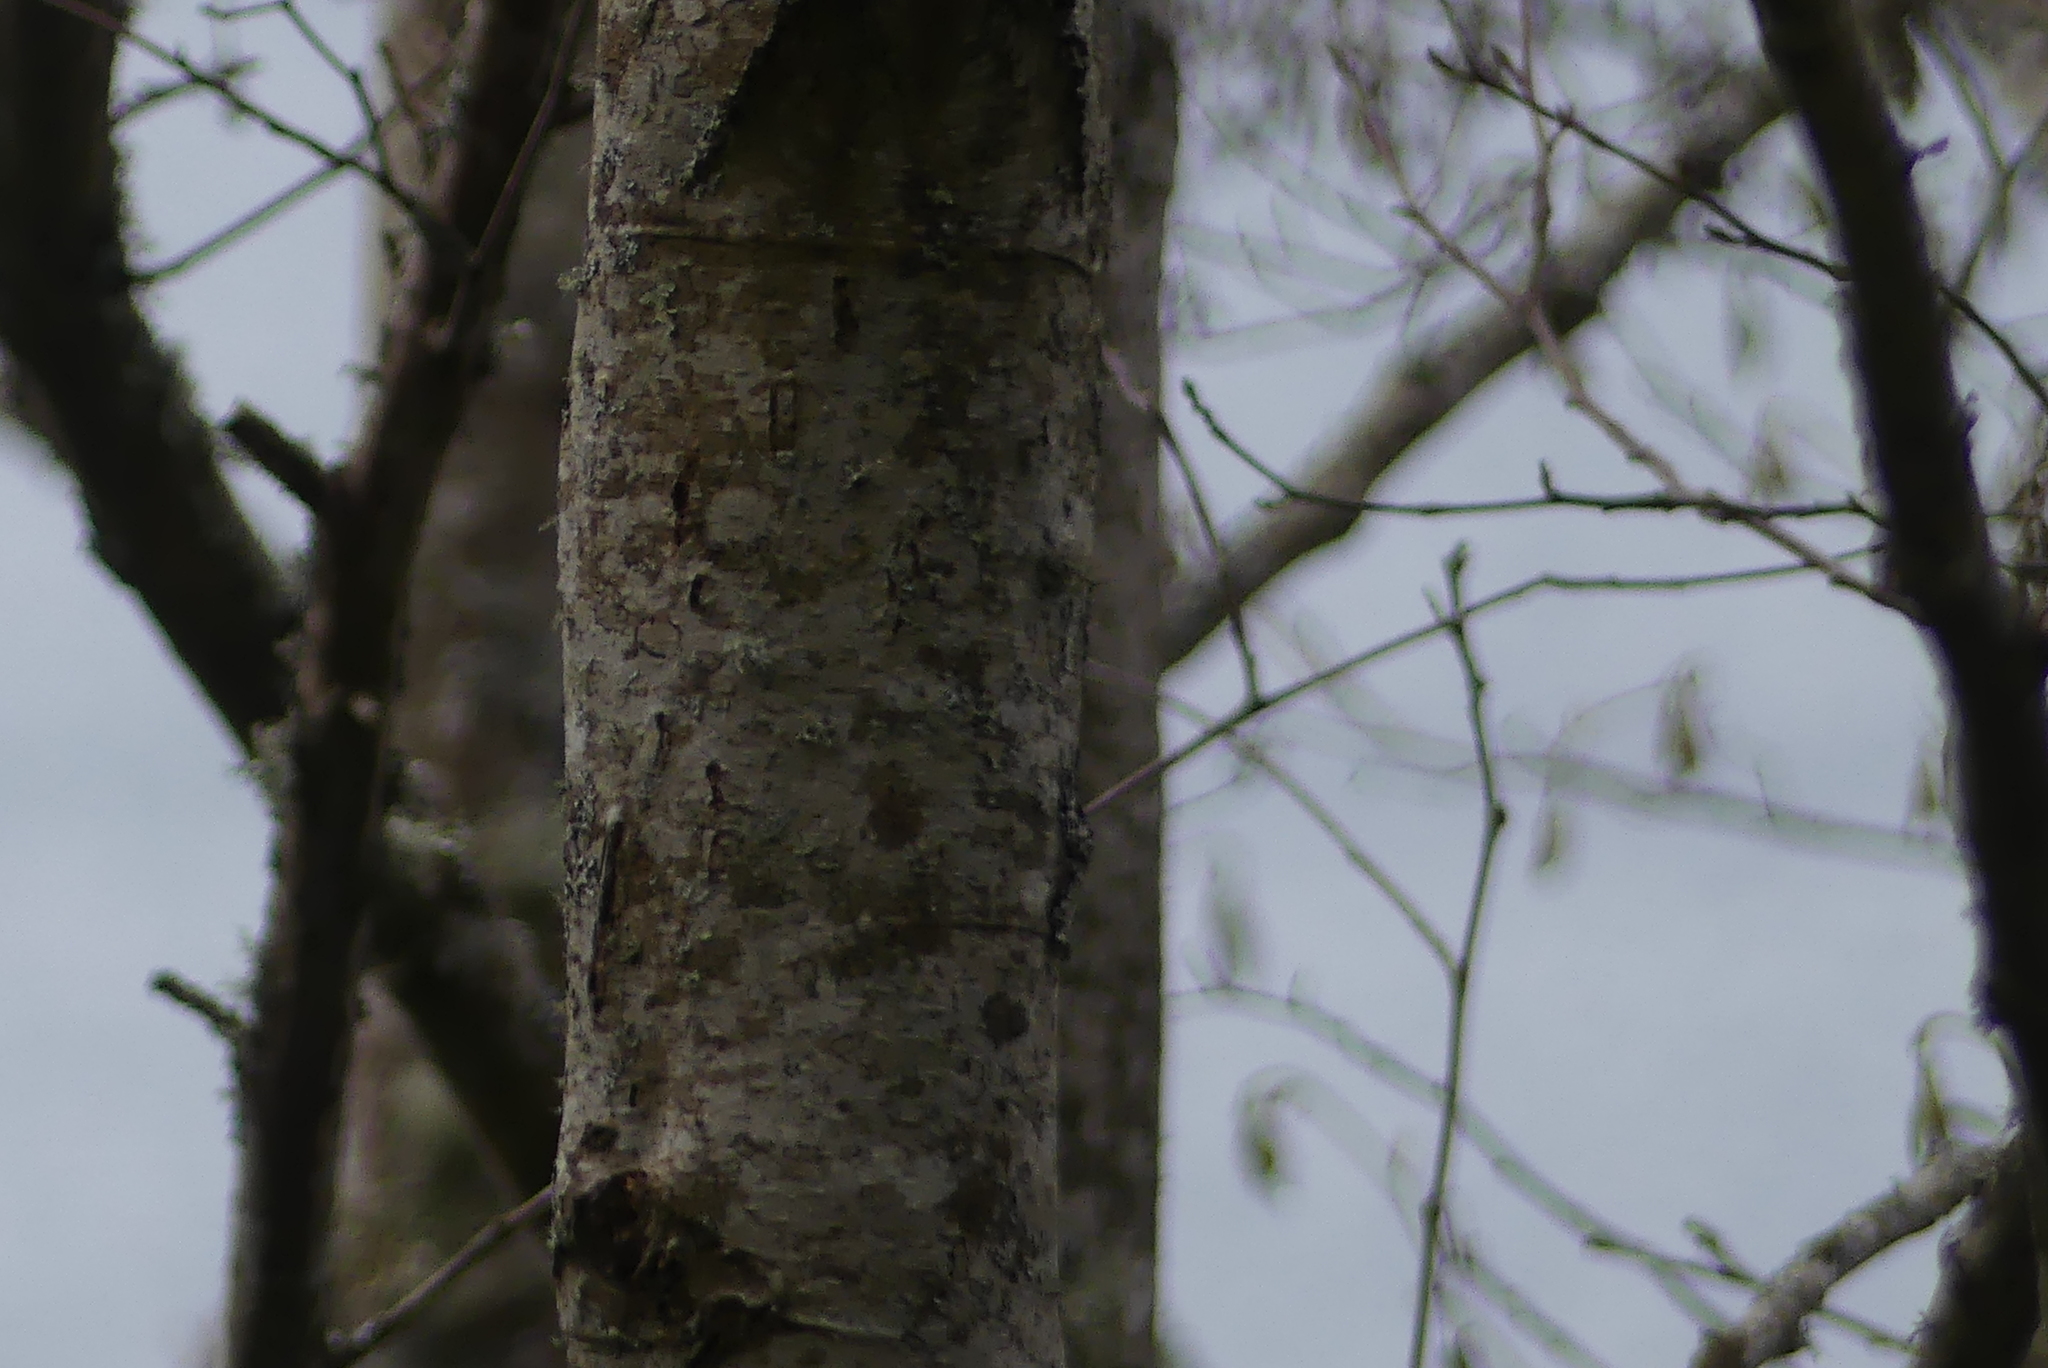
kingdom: Plantae
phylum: Tracheophyta
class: Magnoliopsida
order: Fagales
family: Betulaceae
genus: Alnus
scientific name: Alnus rubra
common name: Red alder
